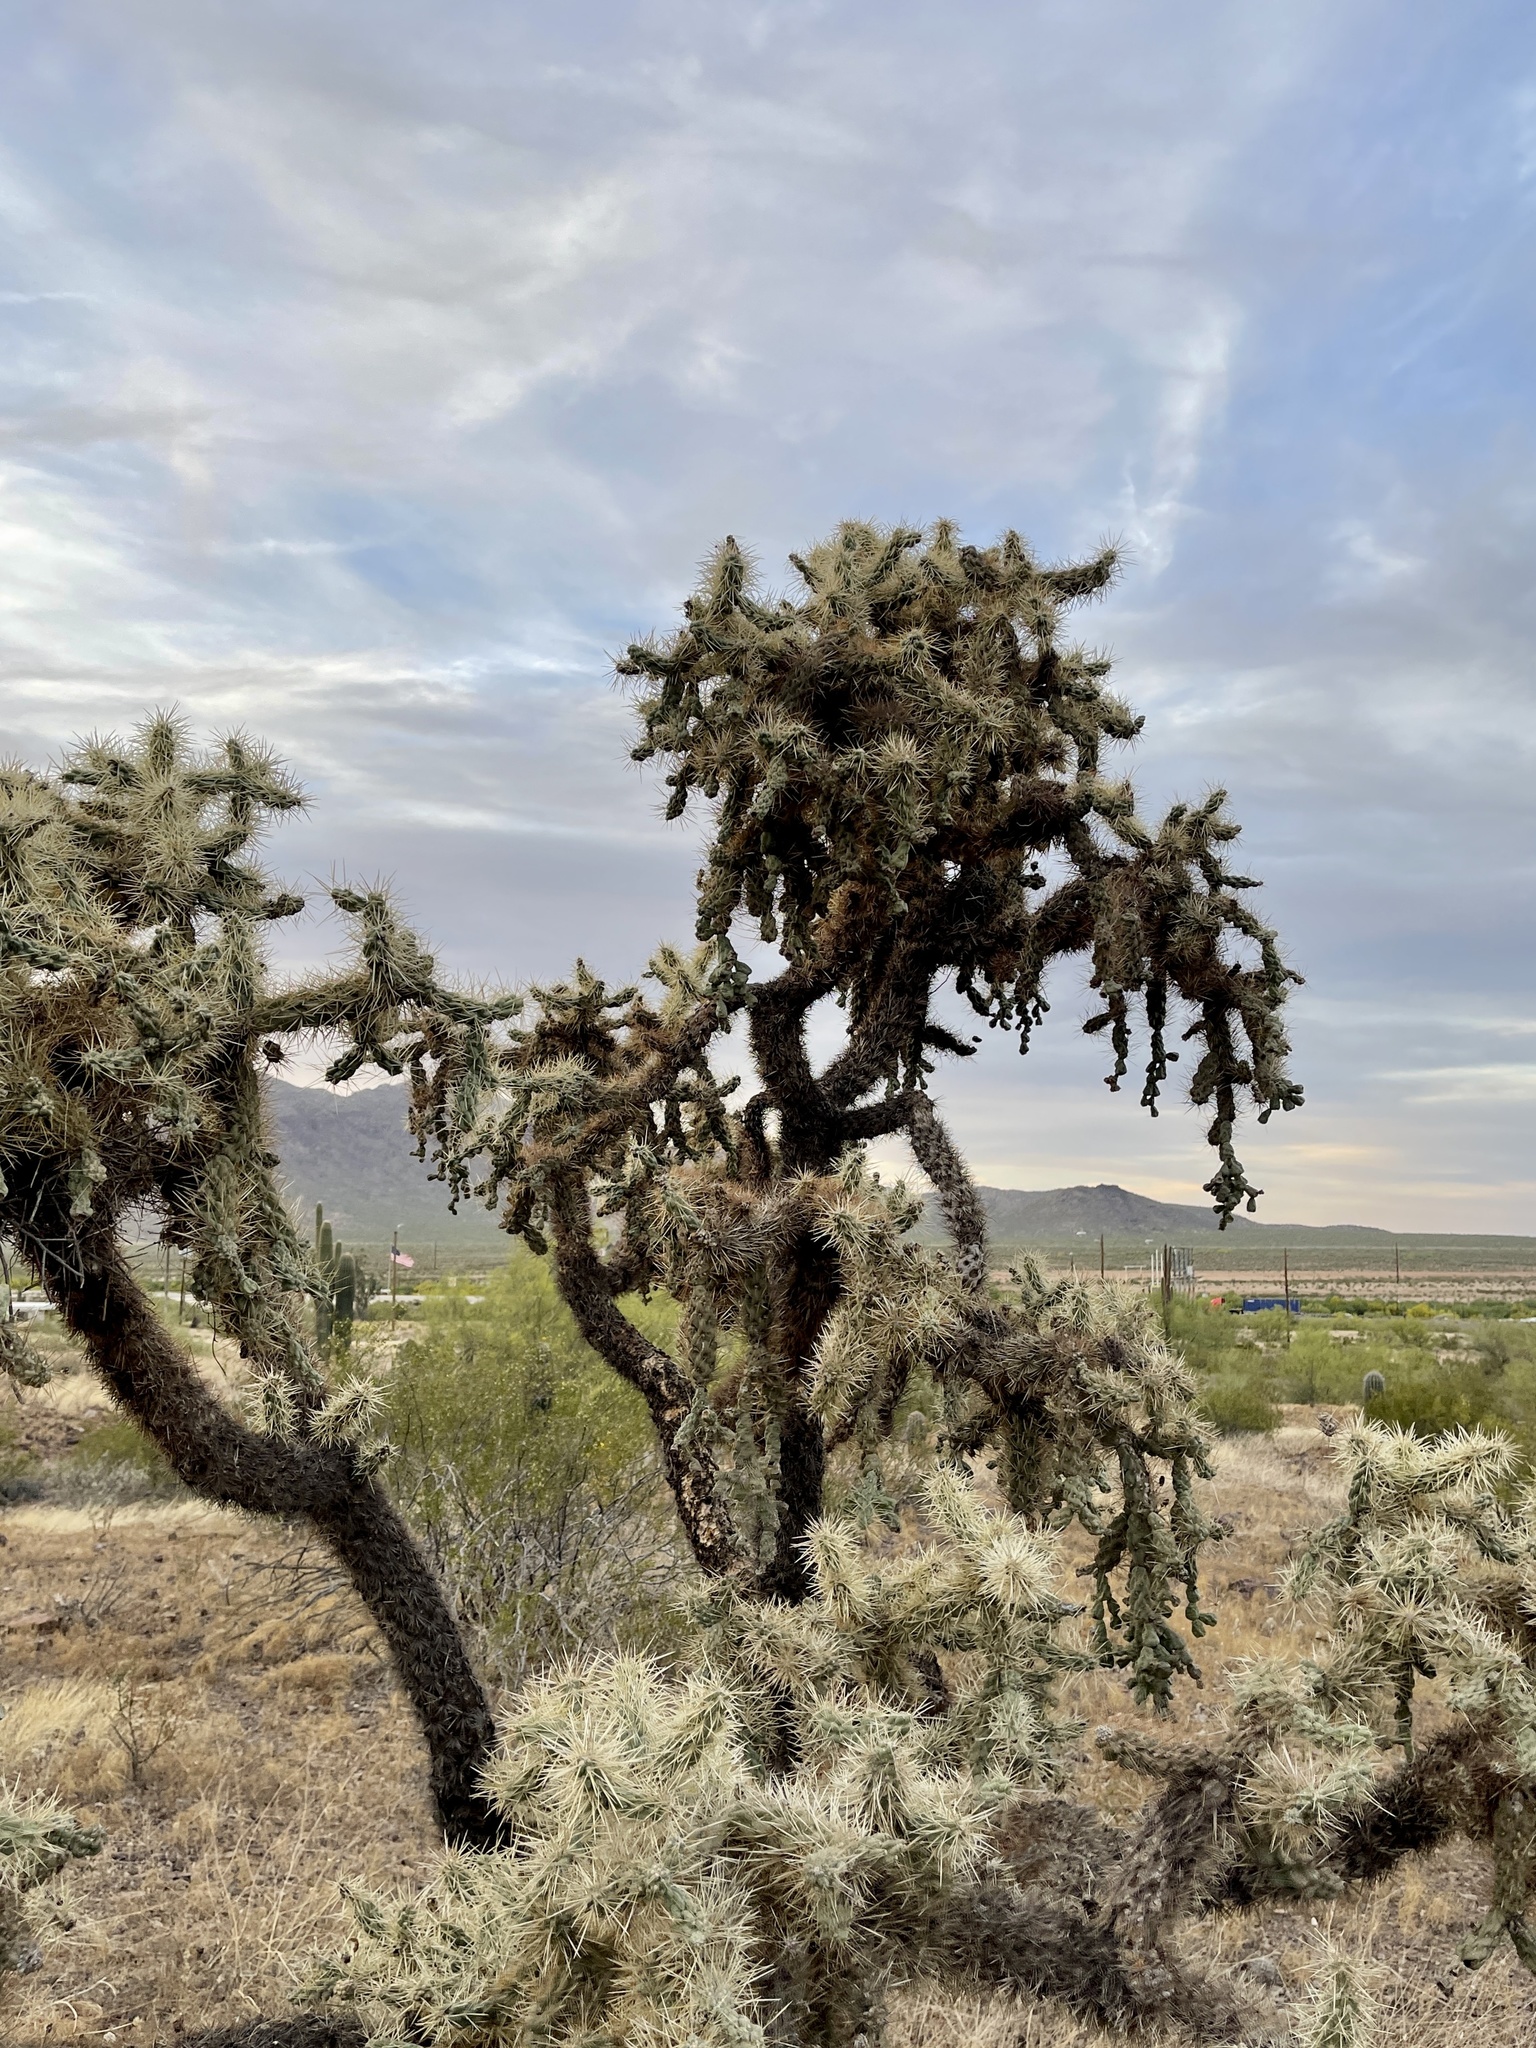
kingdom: Plantae
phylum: Tracheophyta
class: Magnoliopsida
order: Caryophyllales
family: Cactaceae
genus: Cylindropuntia
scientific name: Cylindropuntia fulgida
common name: Jumping cholla
